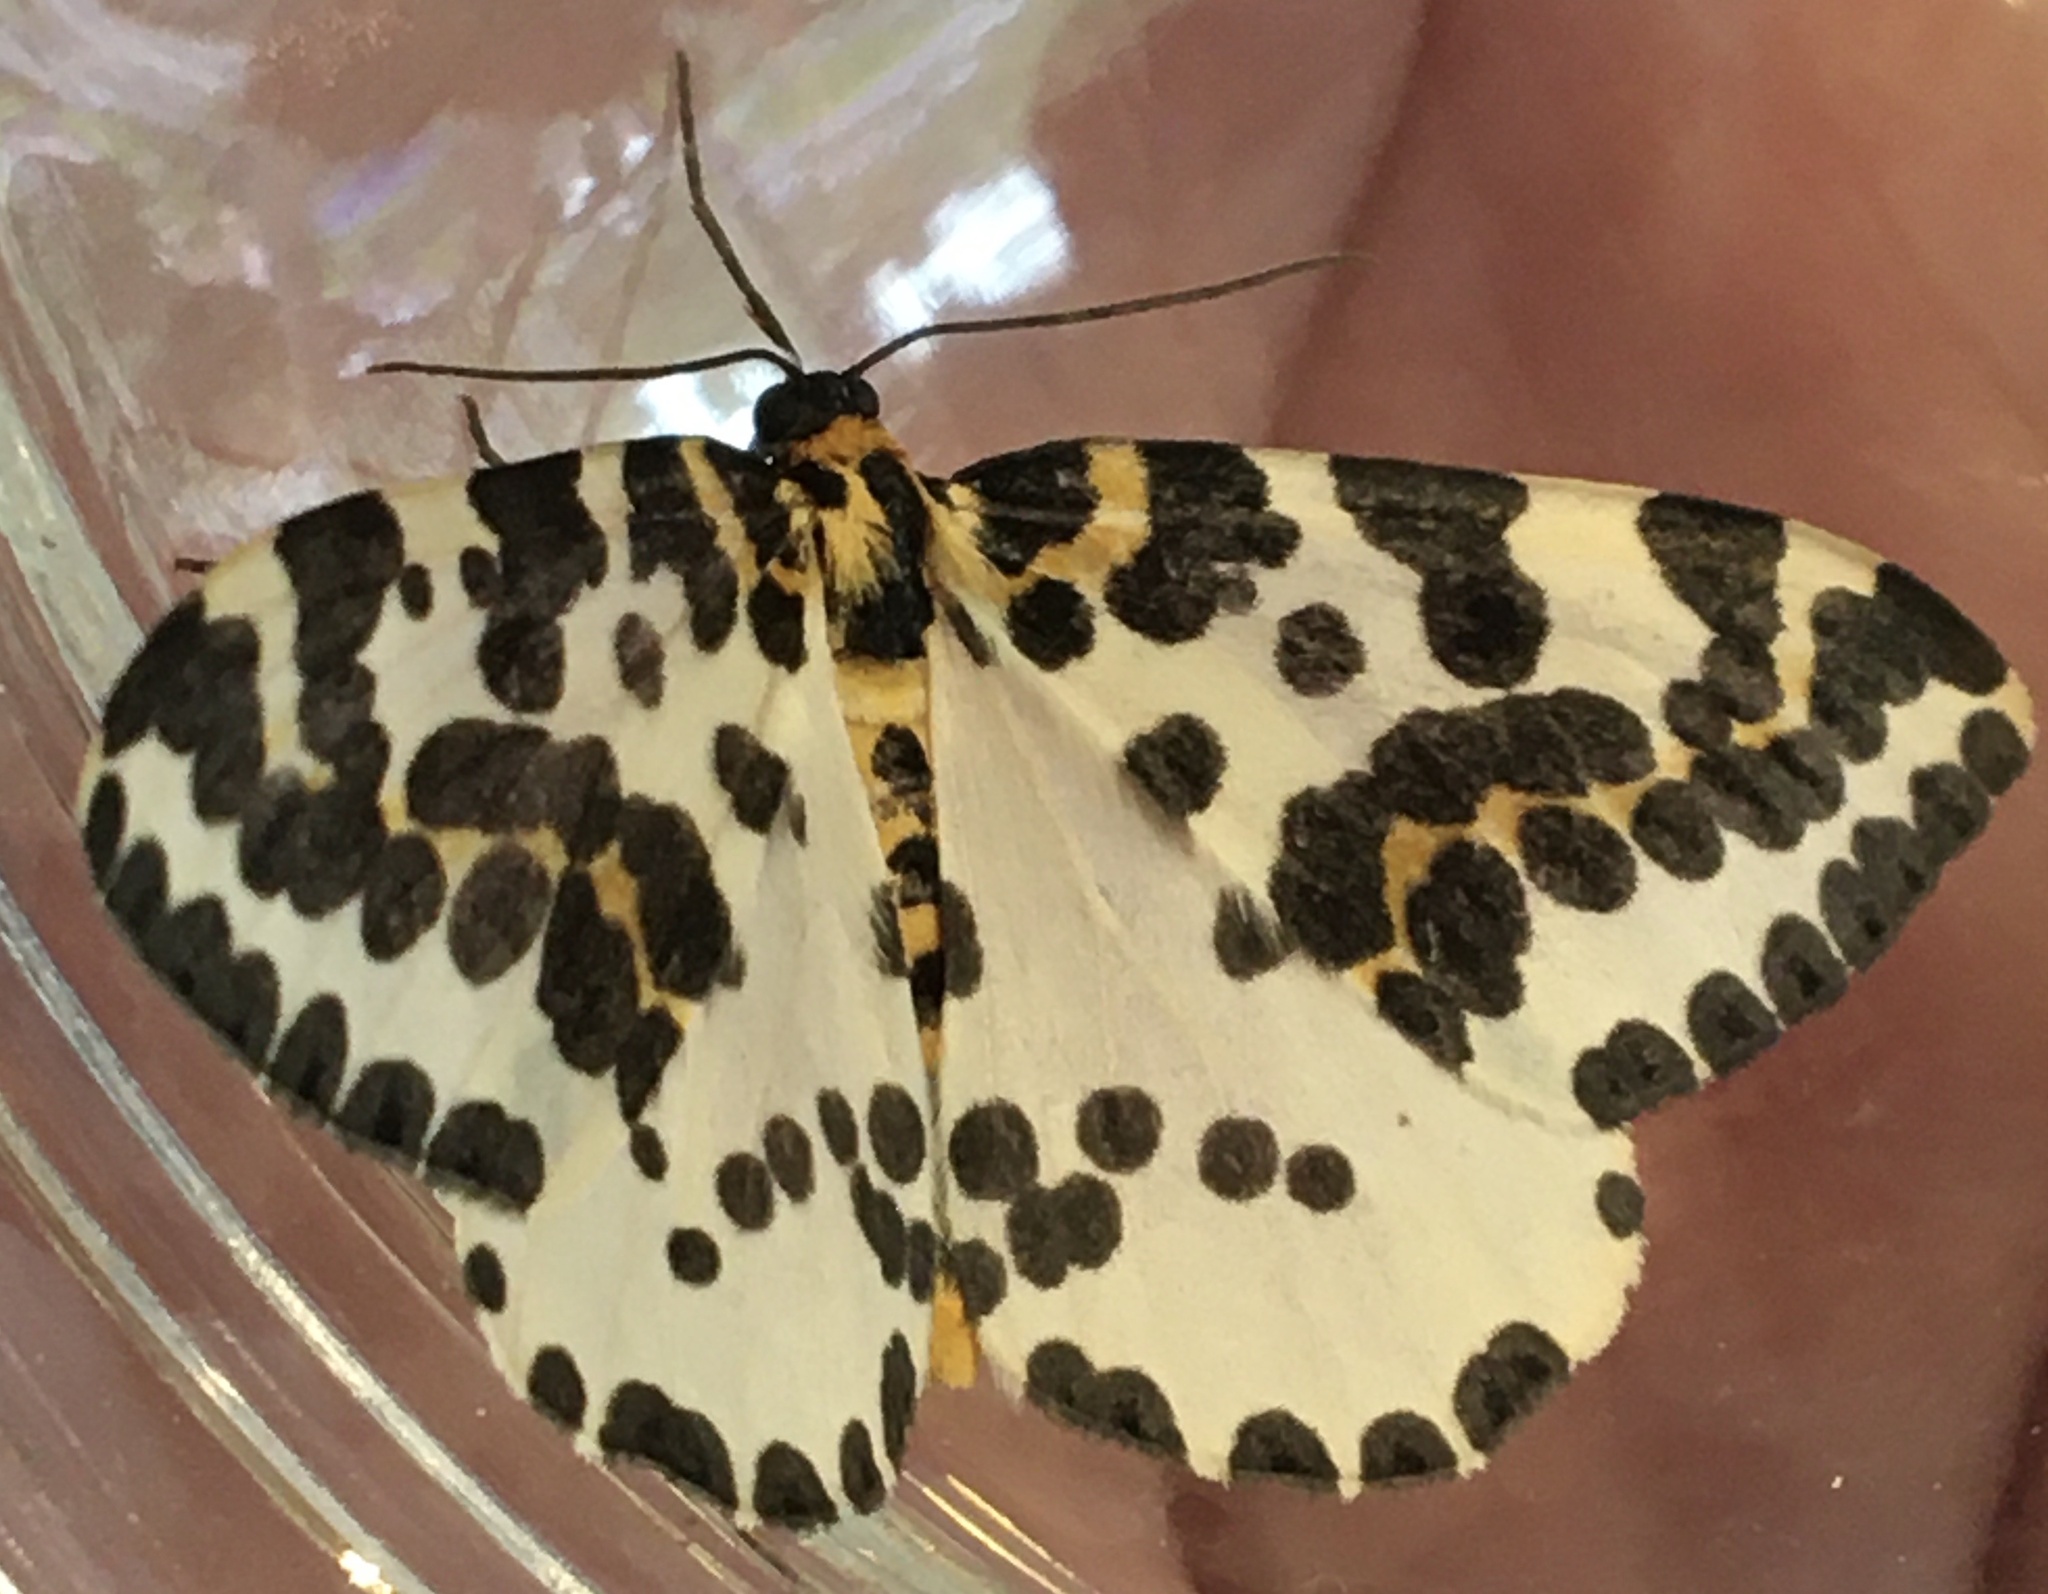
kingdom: Animalia
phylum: Arthropoda
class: Insecta
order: Lepidoptera
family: Geometridae
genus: Abraxas
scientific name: Abraxas grossulariata
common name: Magpie
